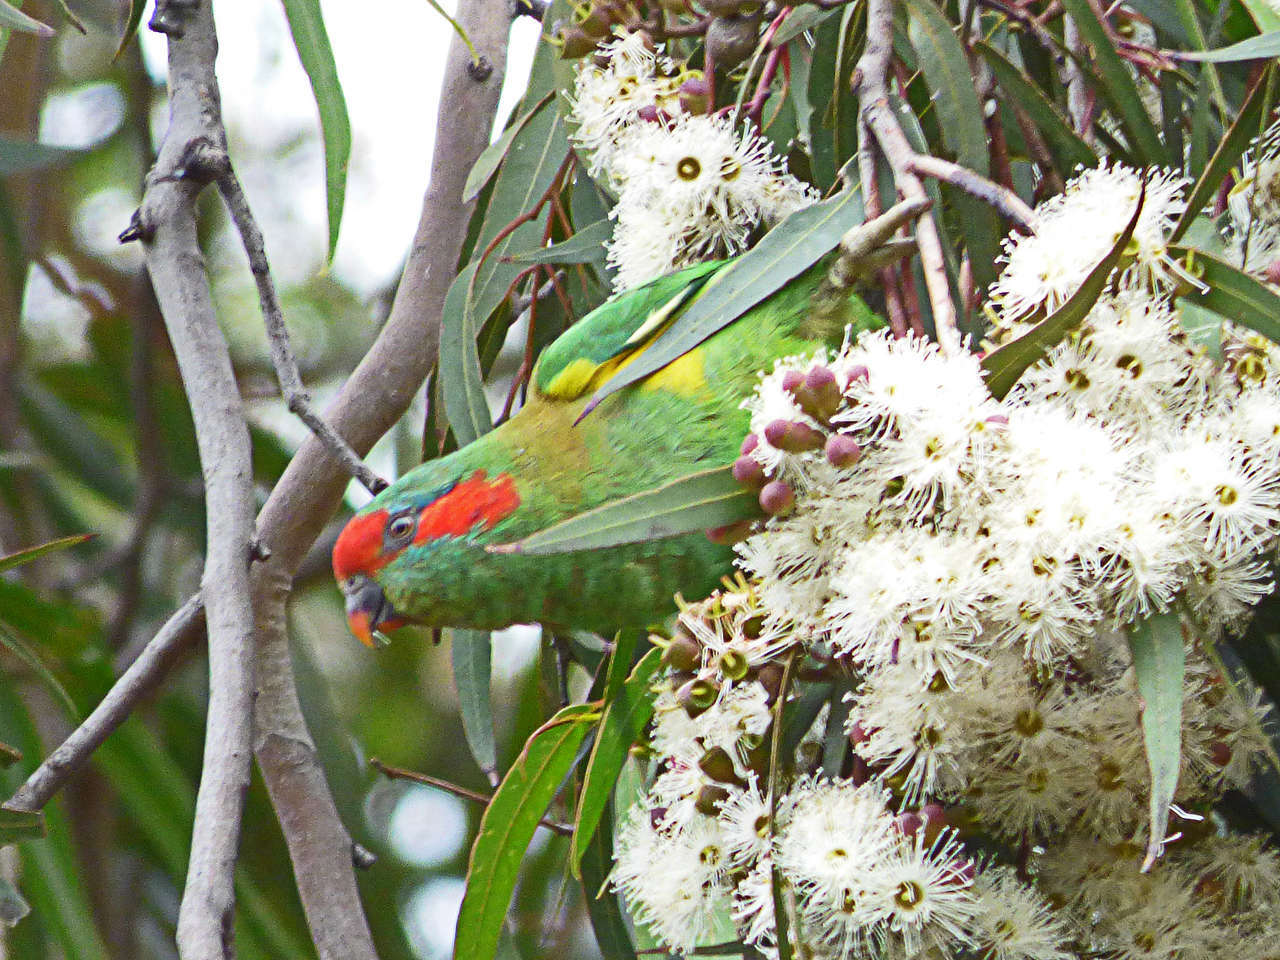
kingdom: Animalia
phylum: Chordata
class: Aves
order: Psittaciformes
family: Psittacidae
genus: Glossopsitta
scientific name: Glossopsitta concinna
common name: Musk lorikeet
